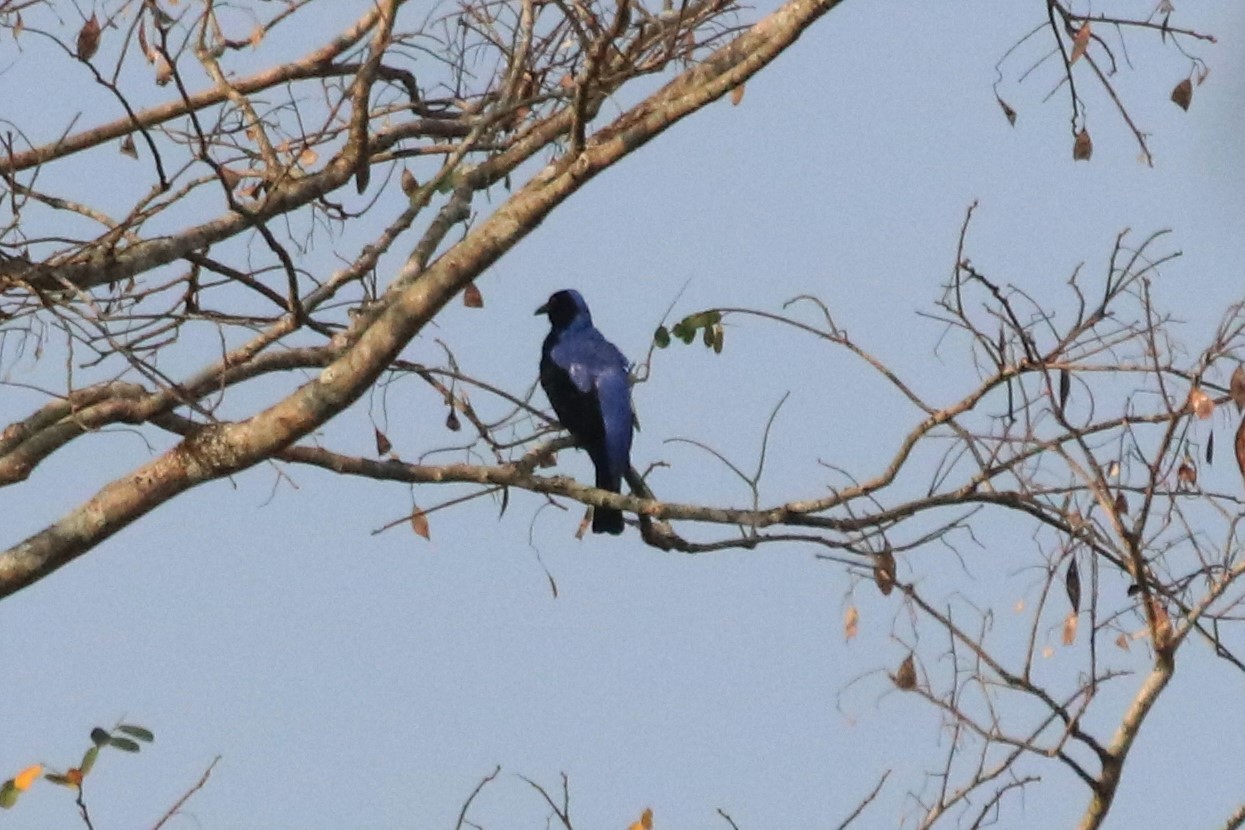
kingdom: Animalia
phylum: Chordata
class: Aves
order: Passeriformes
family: Irenidae
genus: Irena
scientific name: Irena puella
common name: Asian fairy-bluebird
